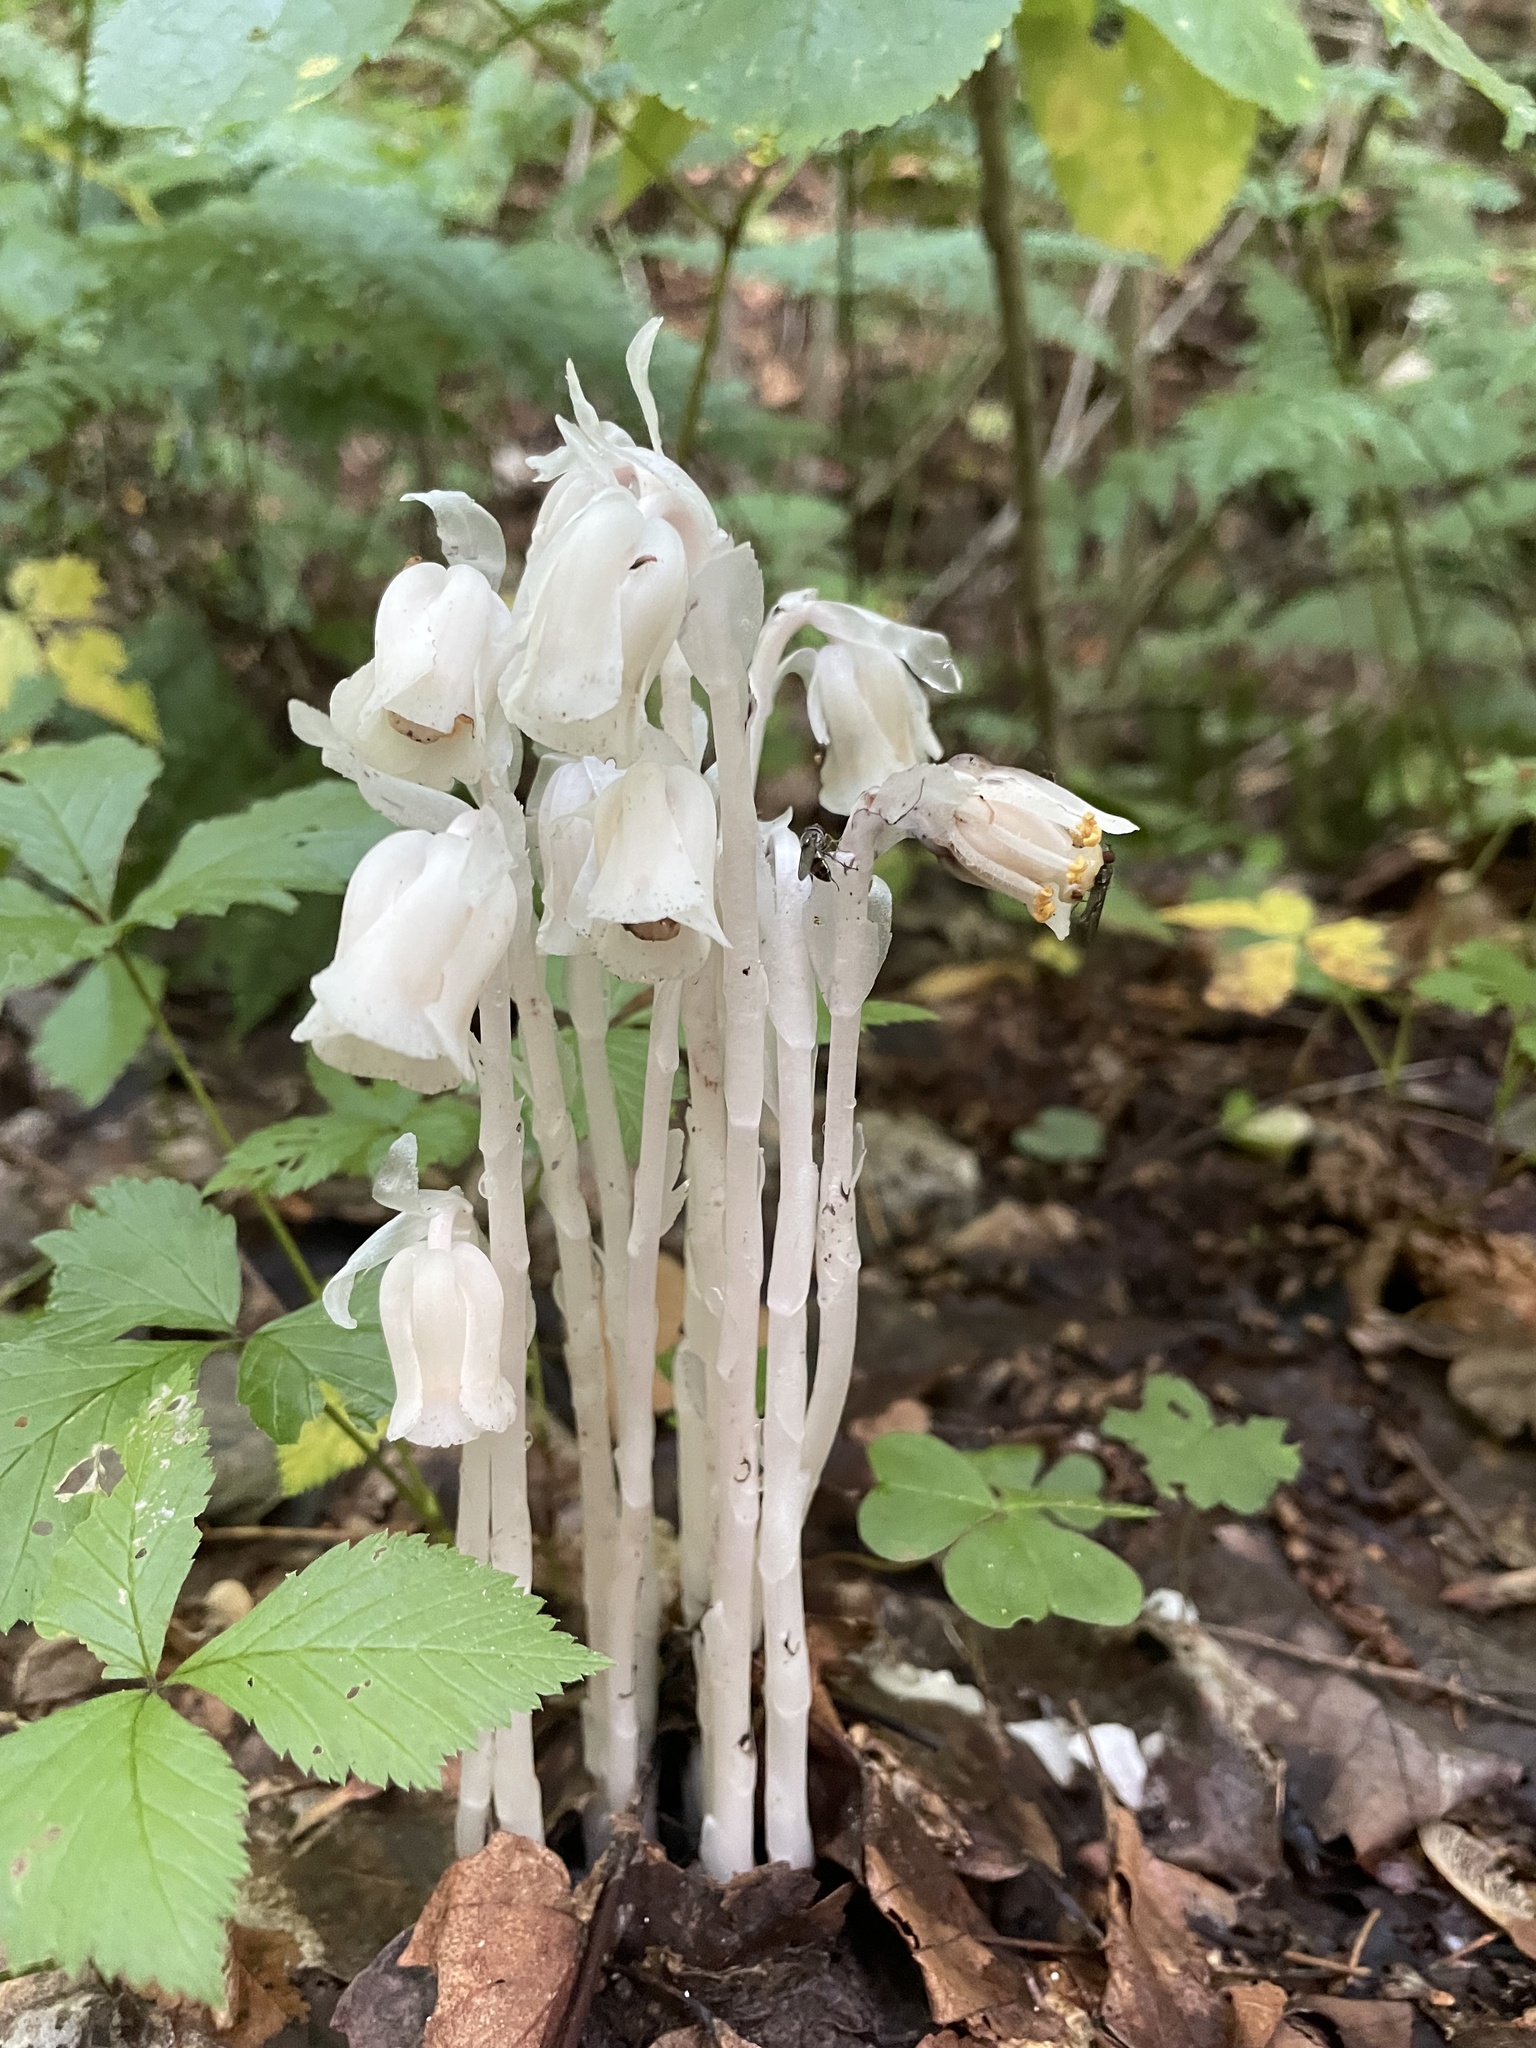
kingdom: Plantae
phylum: Tracheophyta
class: Magnoliopsida
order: Ericales
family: Ericaceae
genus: Monotropa
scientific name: Monotropa uniflora
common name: Convulsion root
